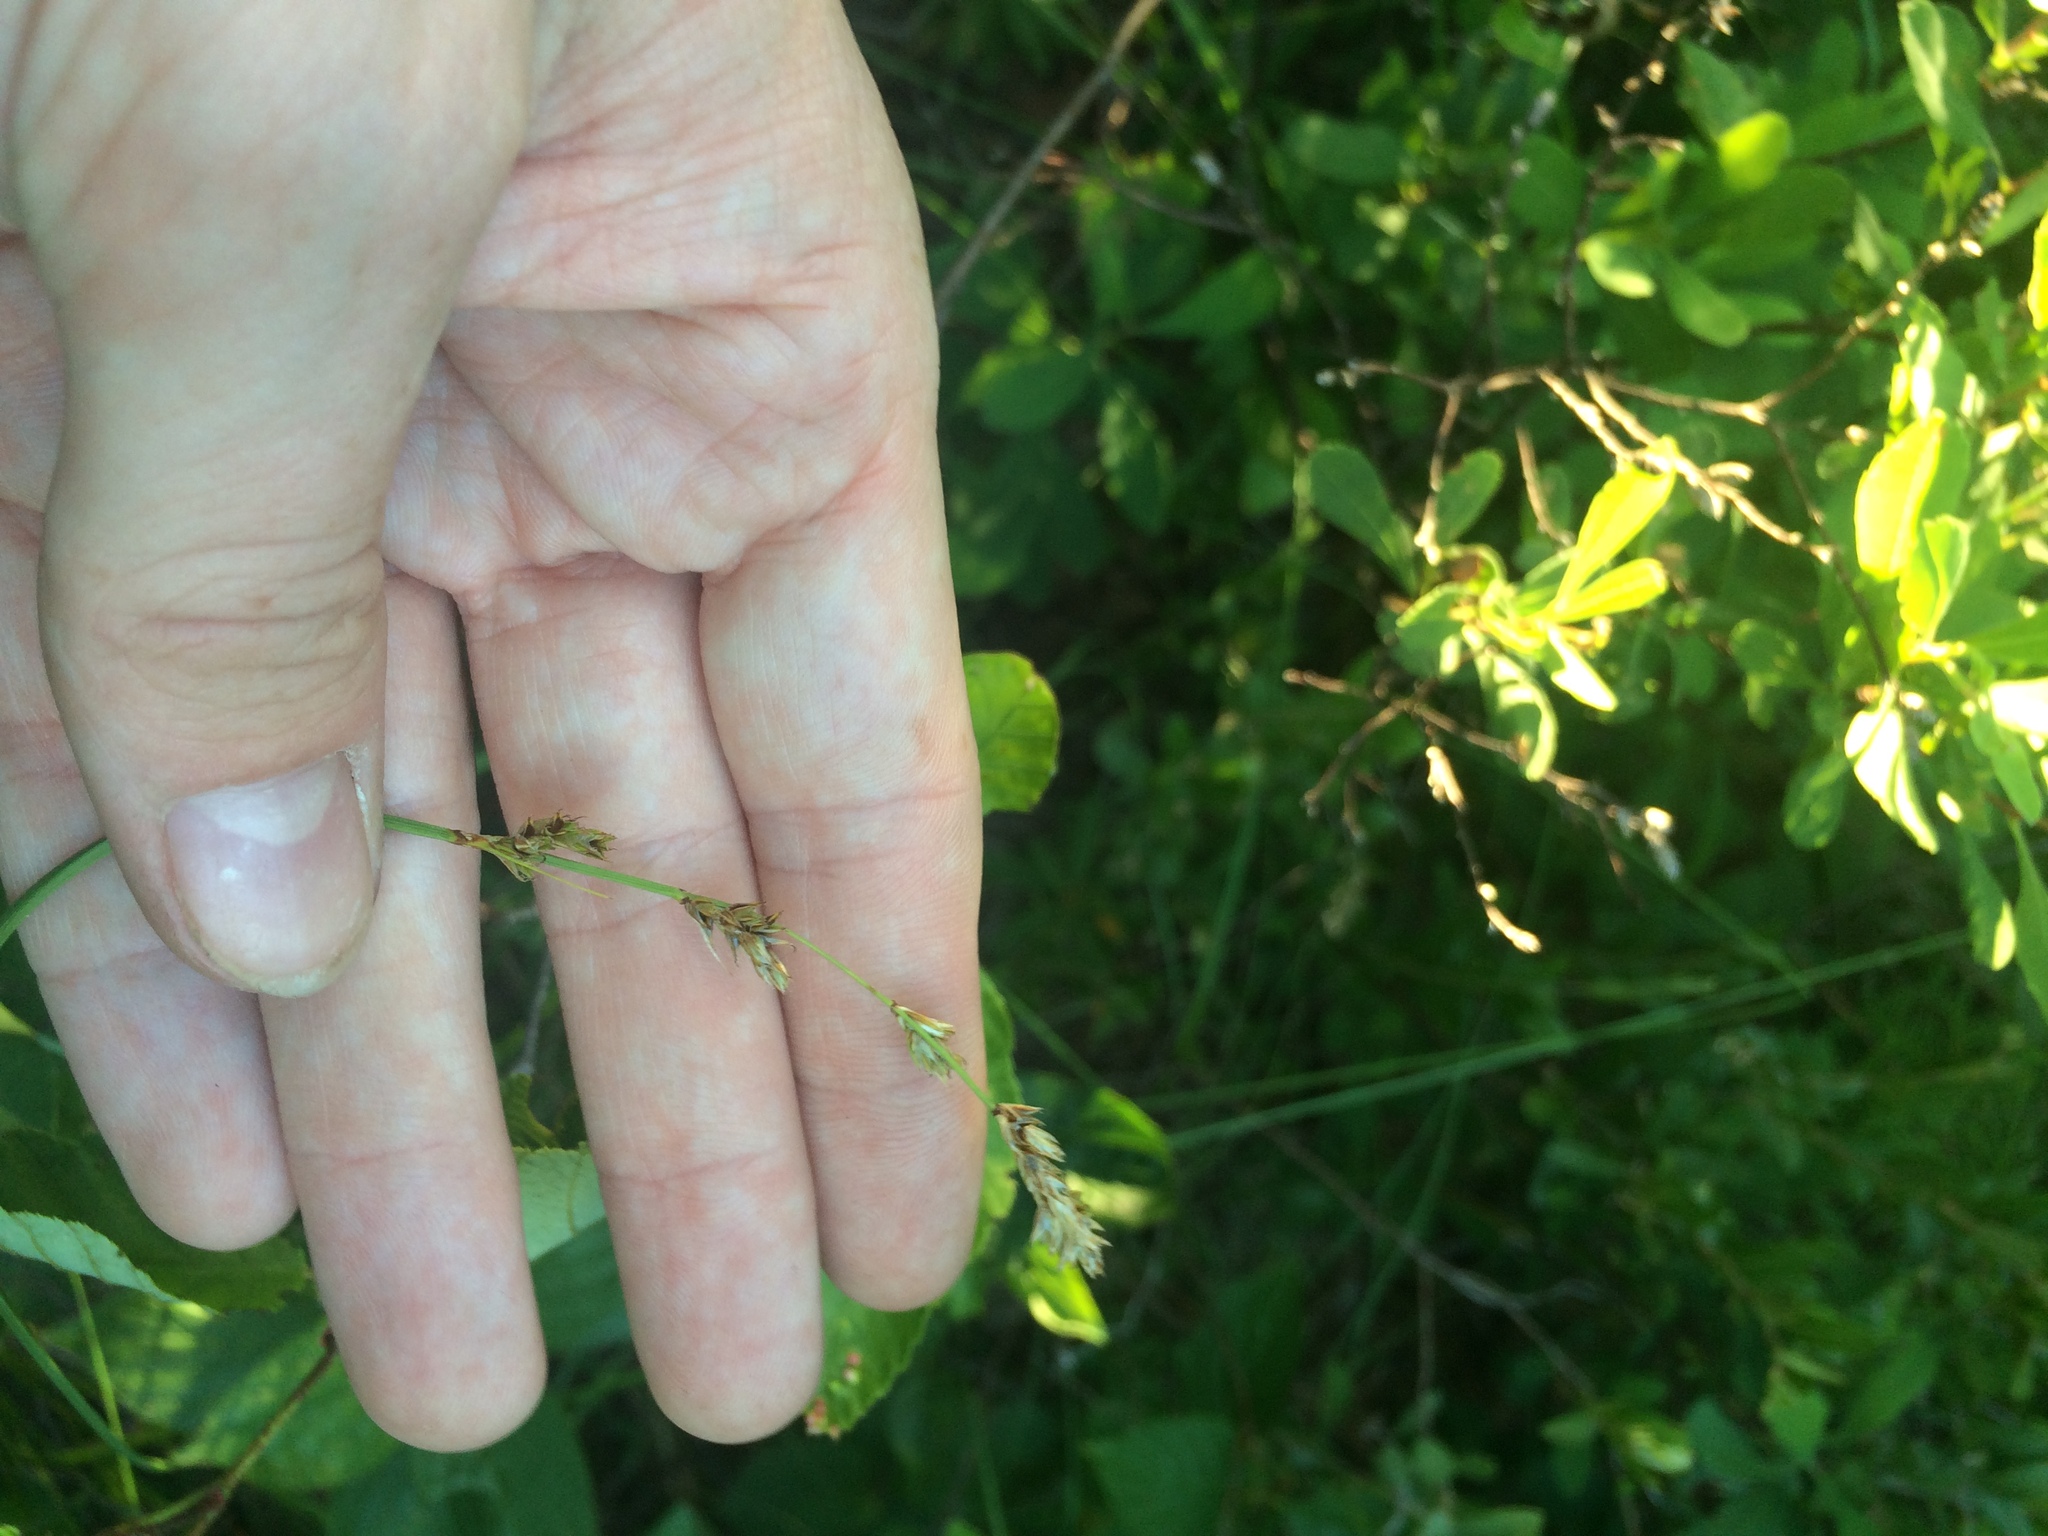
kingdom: Plantae
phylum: Tracheophyta
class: Liliopsida
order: Poales
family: Cyperaceae
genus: Carex
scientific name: Carex prairea
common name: Prairie sedge
